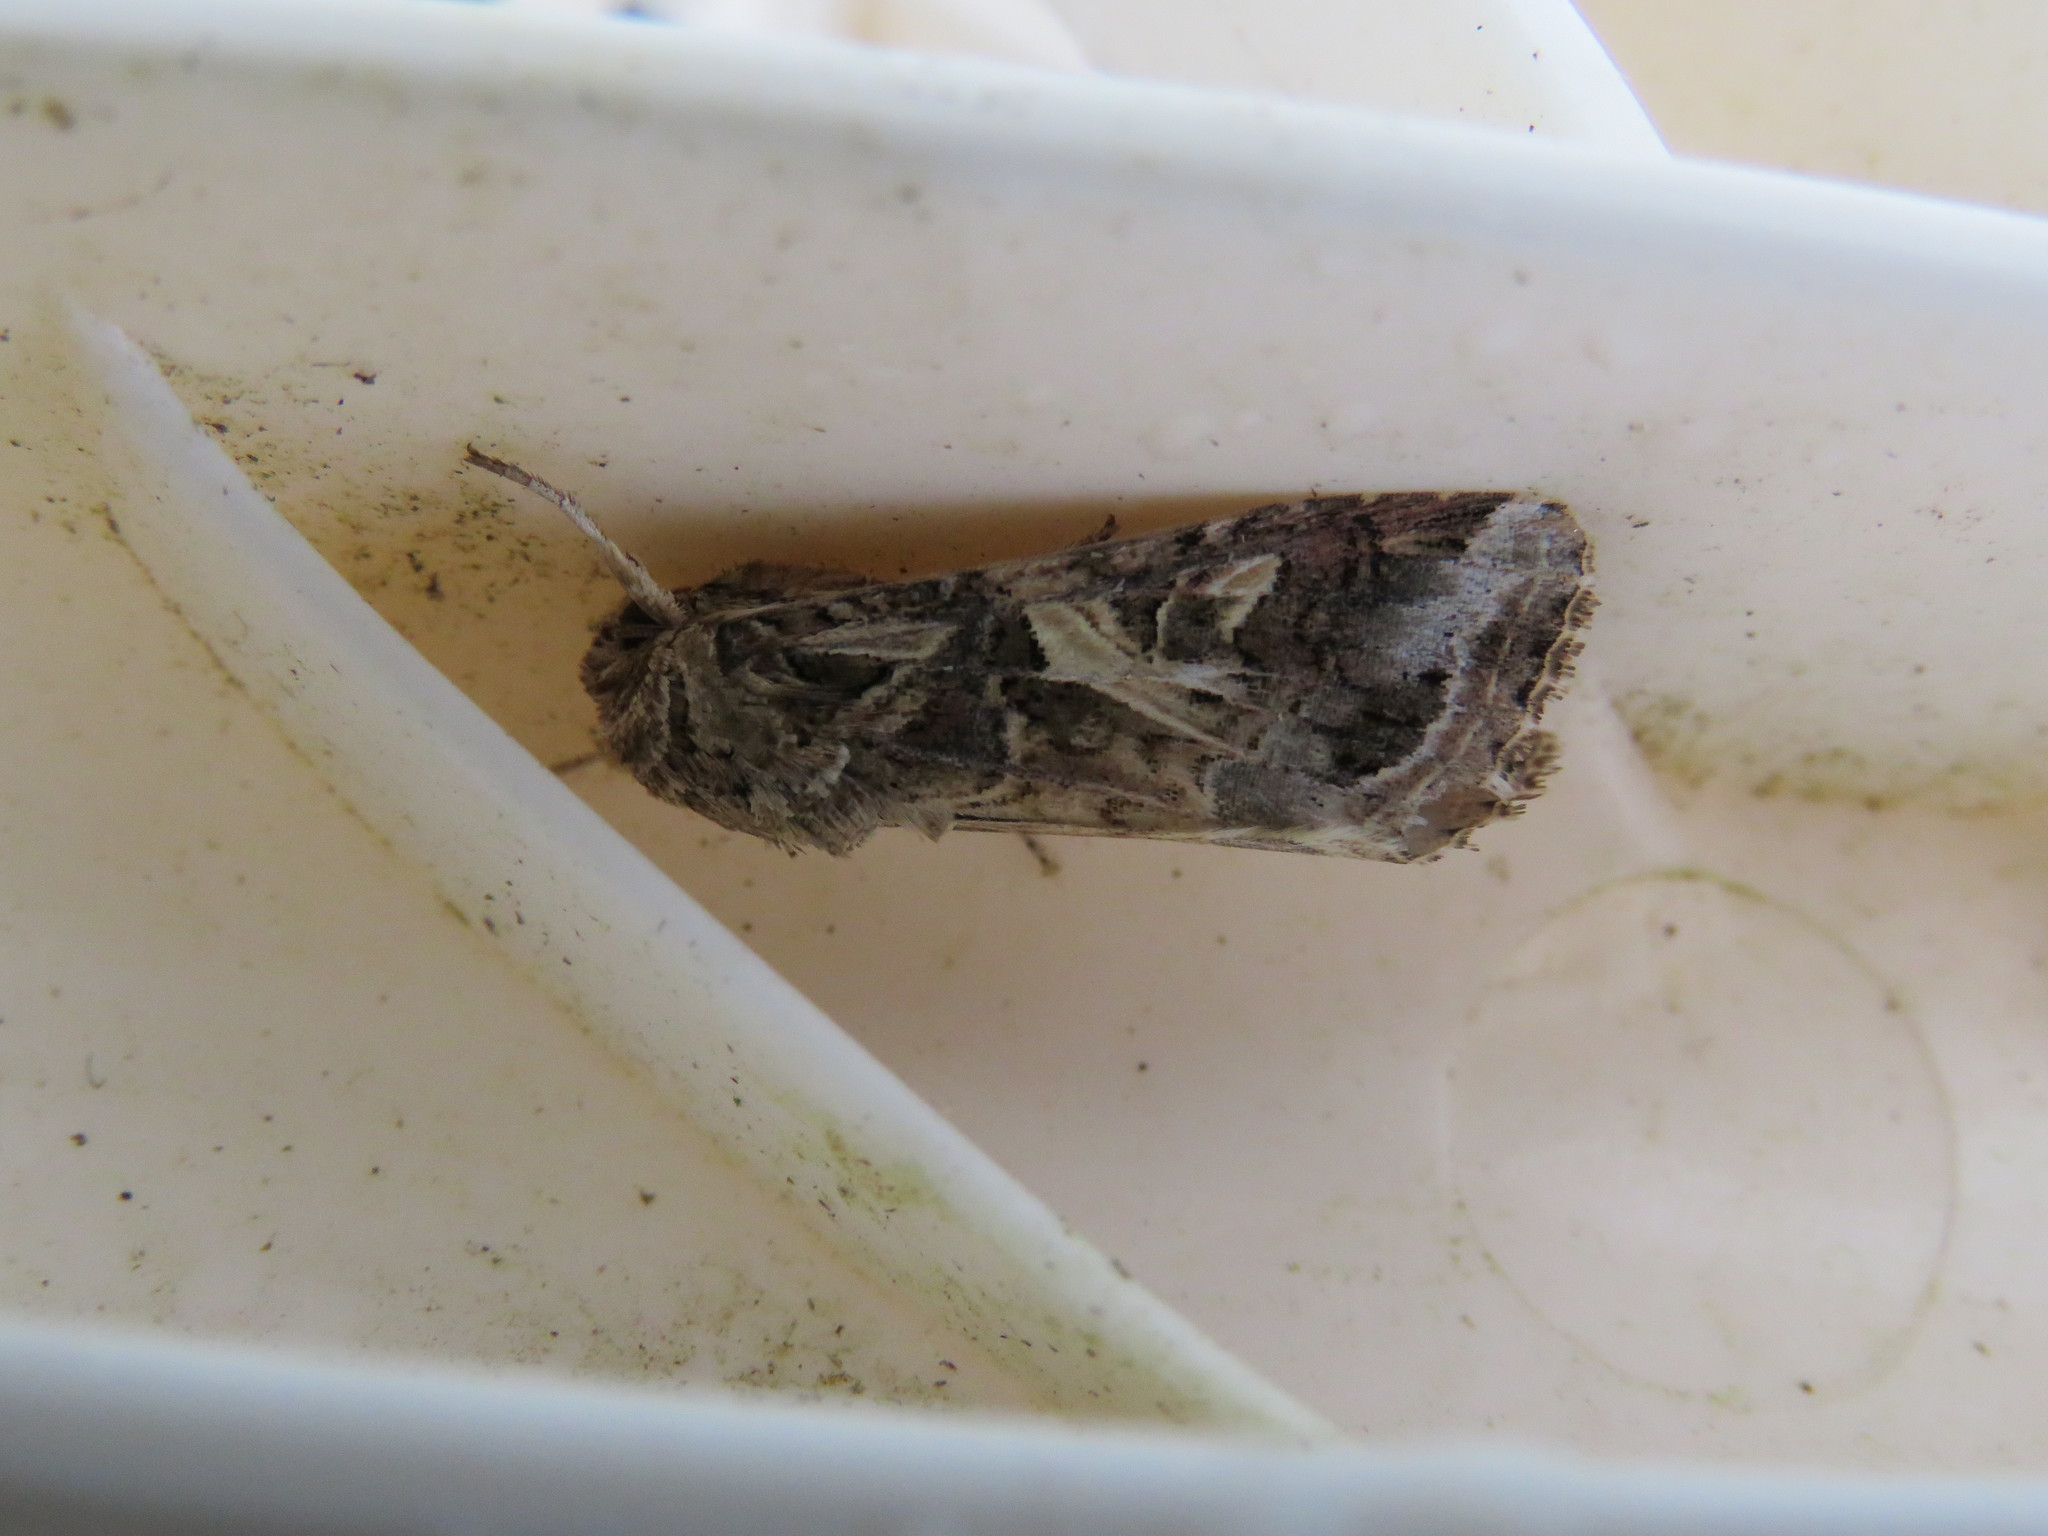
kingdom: Animalia
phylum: Arthropoda
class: Insecta
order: Lepidoptera
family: Noctuidae
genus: Spodoptera
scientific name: Spodoptera ornithogalli
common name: Yellow-striped armyworm
